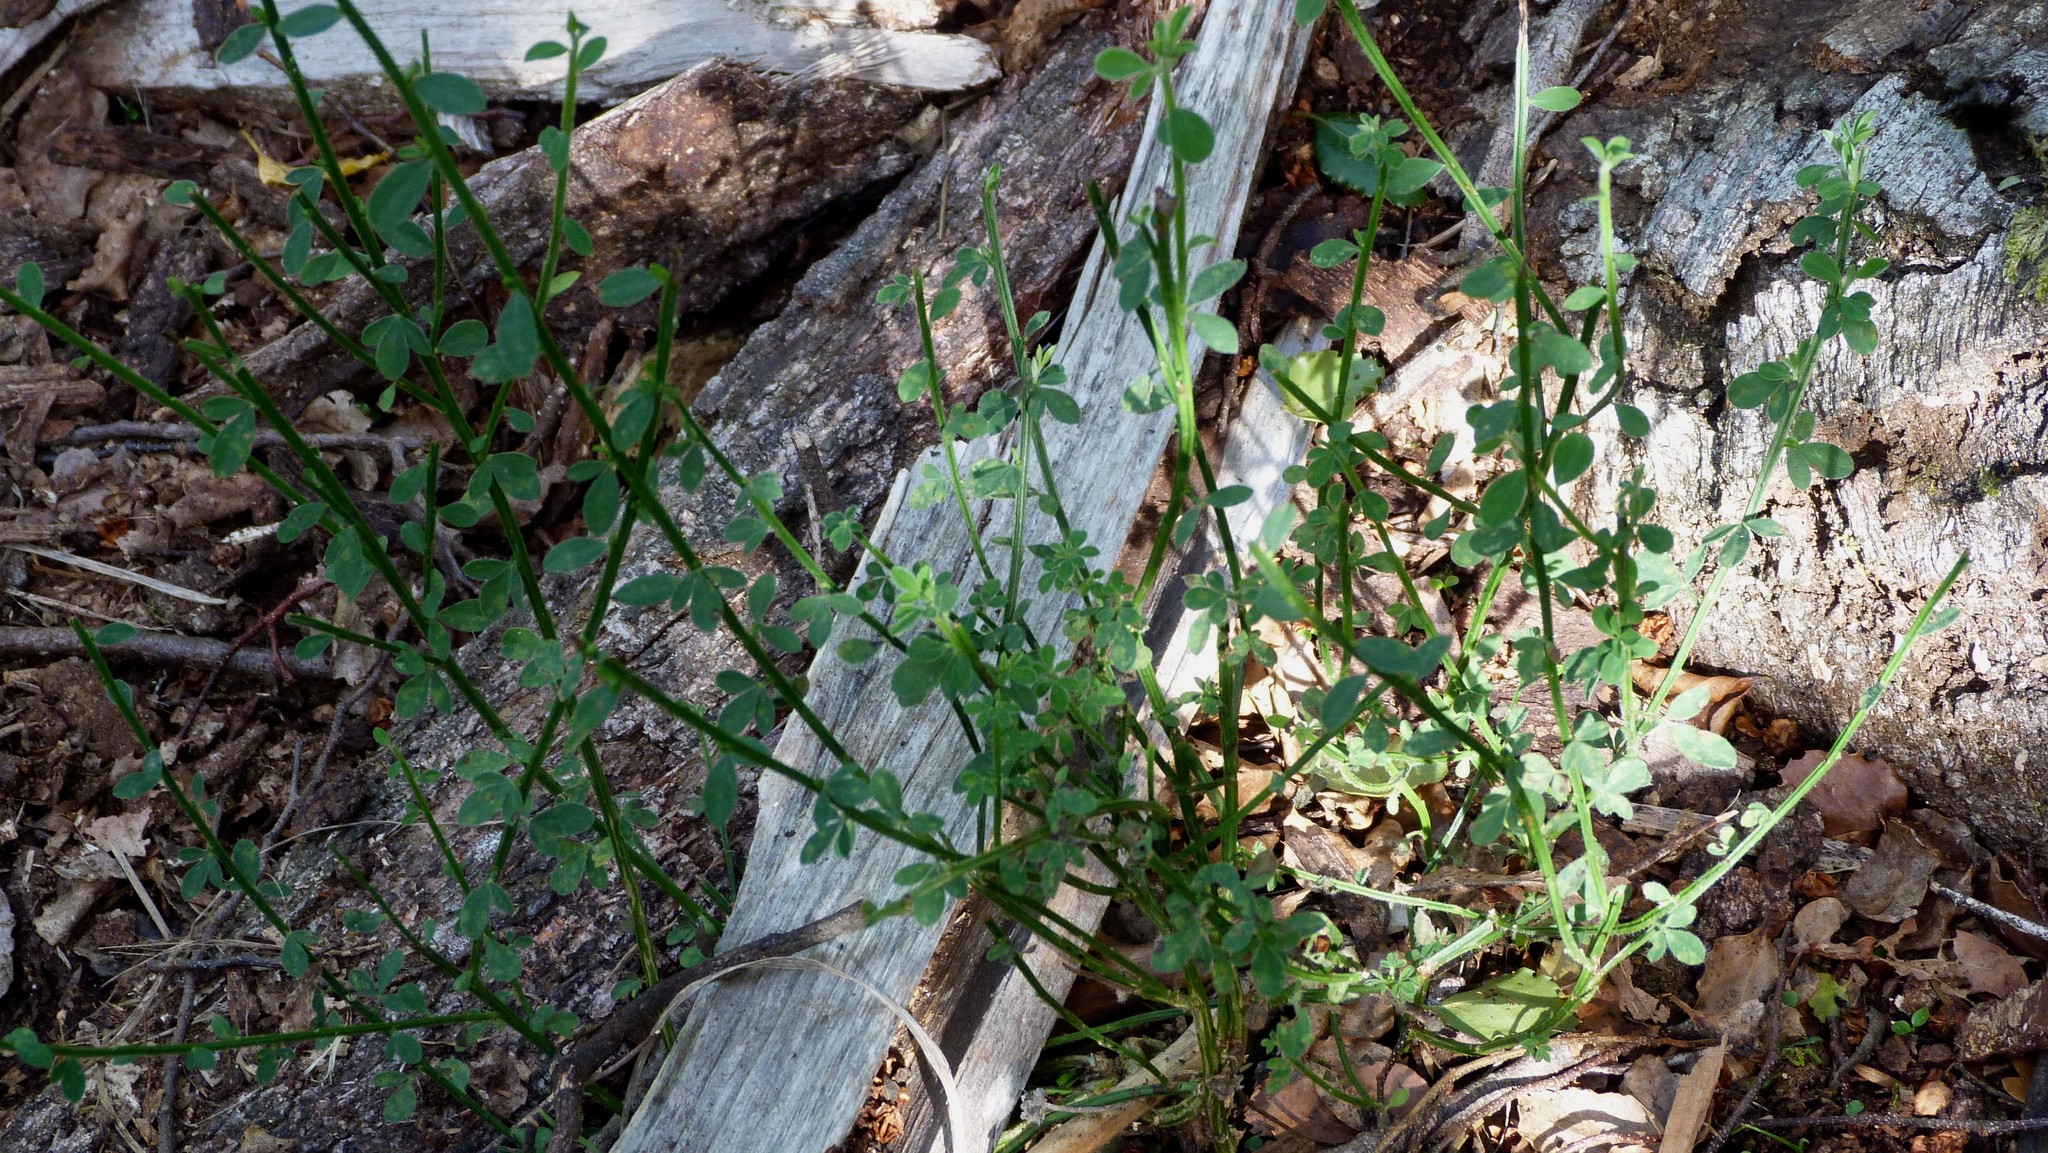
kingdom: Plantae
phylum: Tracheophyta
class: Magnoliopsida
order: Fabales
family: Fabaceae
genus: Cytisus
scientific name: Cytisus scoparius
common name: Scotch broom
